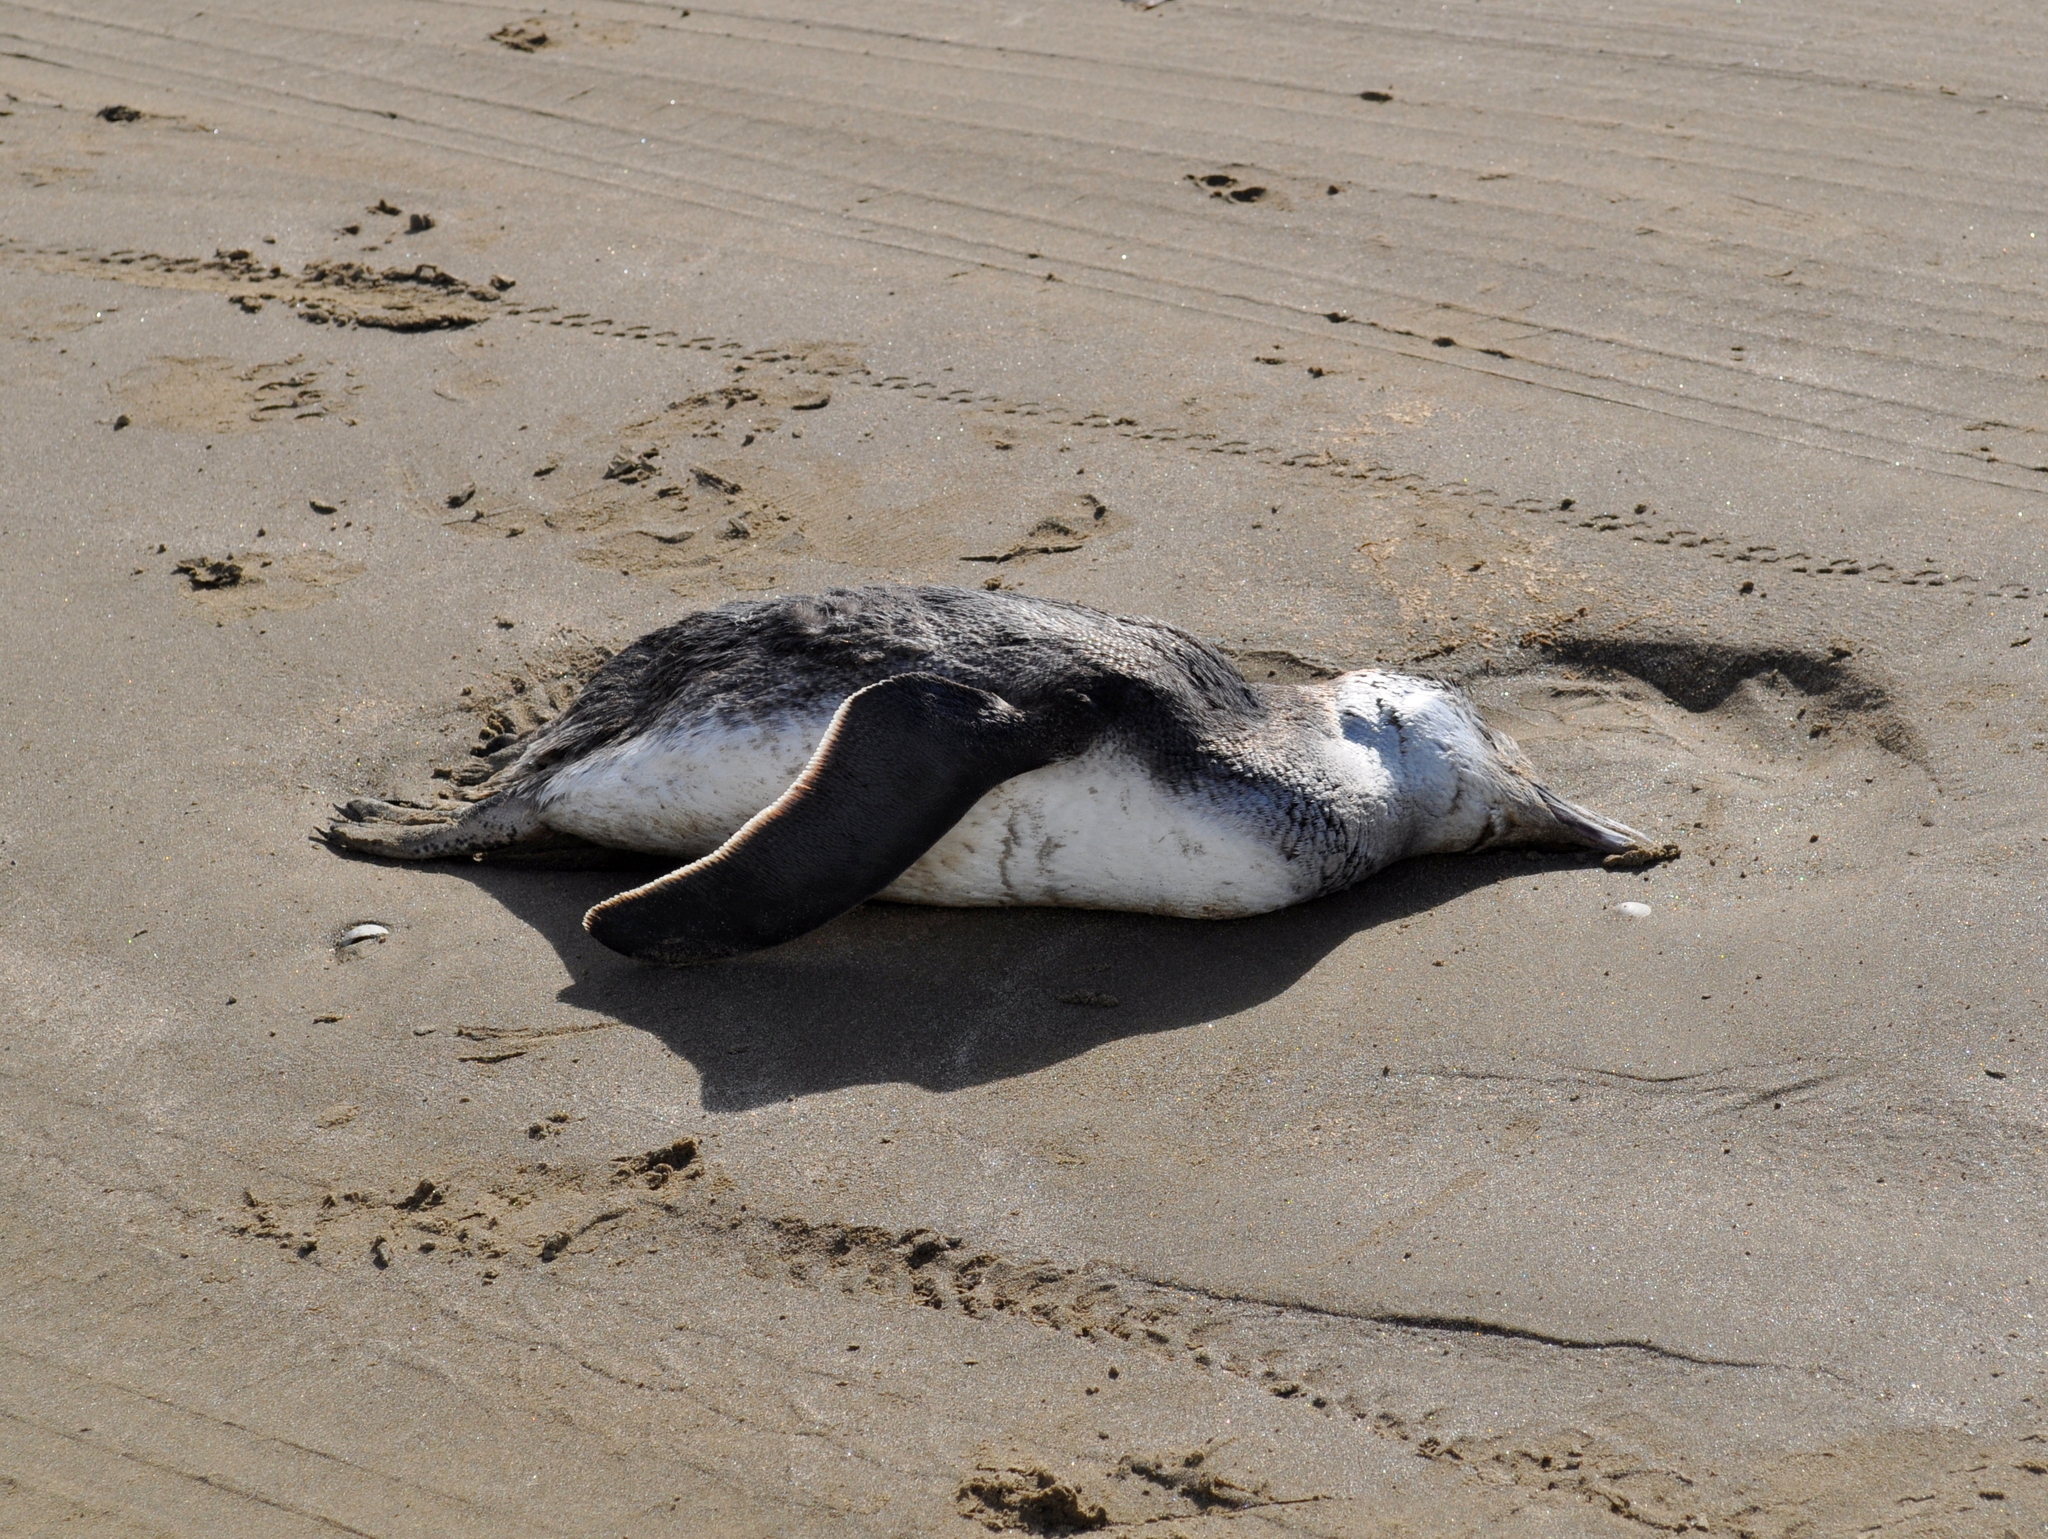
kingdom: Animalia
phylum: Chordata
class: Aves
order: Sphenisciformes
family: Spheniscidae
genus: Spheniscus
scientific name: Spheniscus magellanicus
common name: Magellanic penguin
